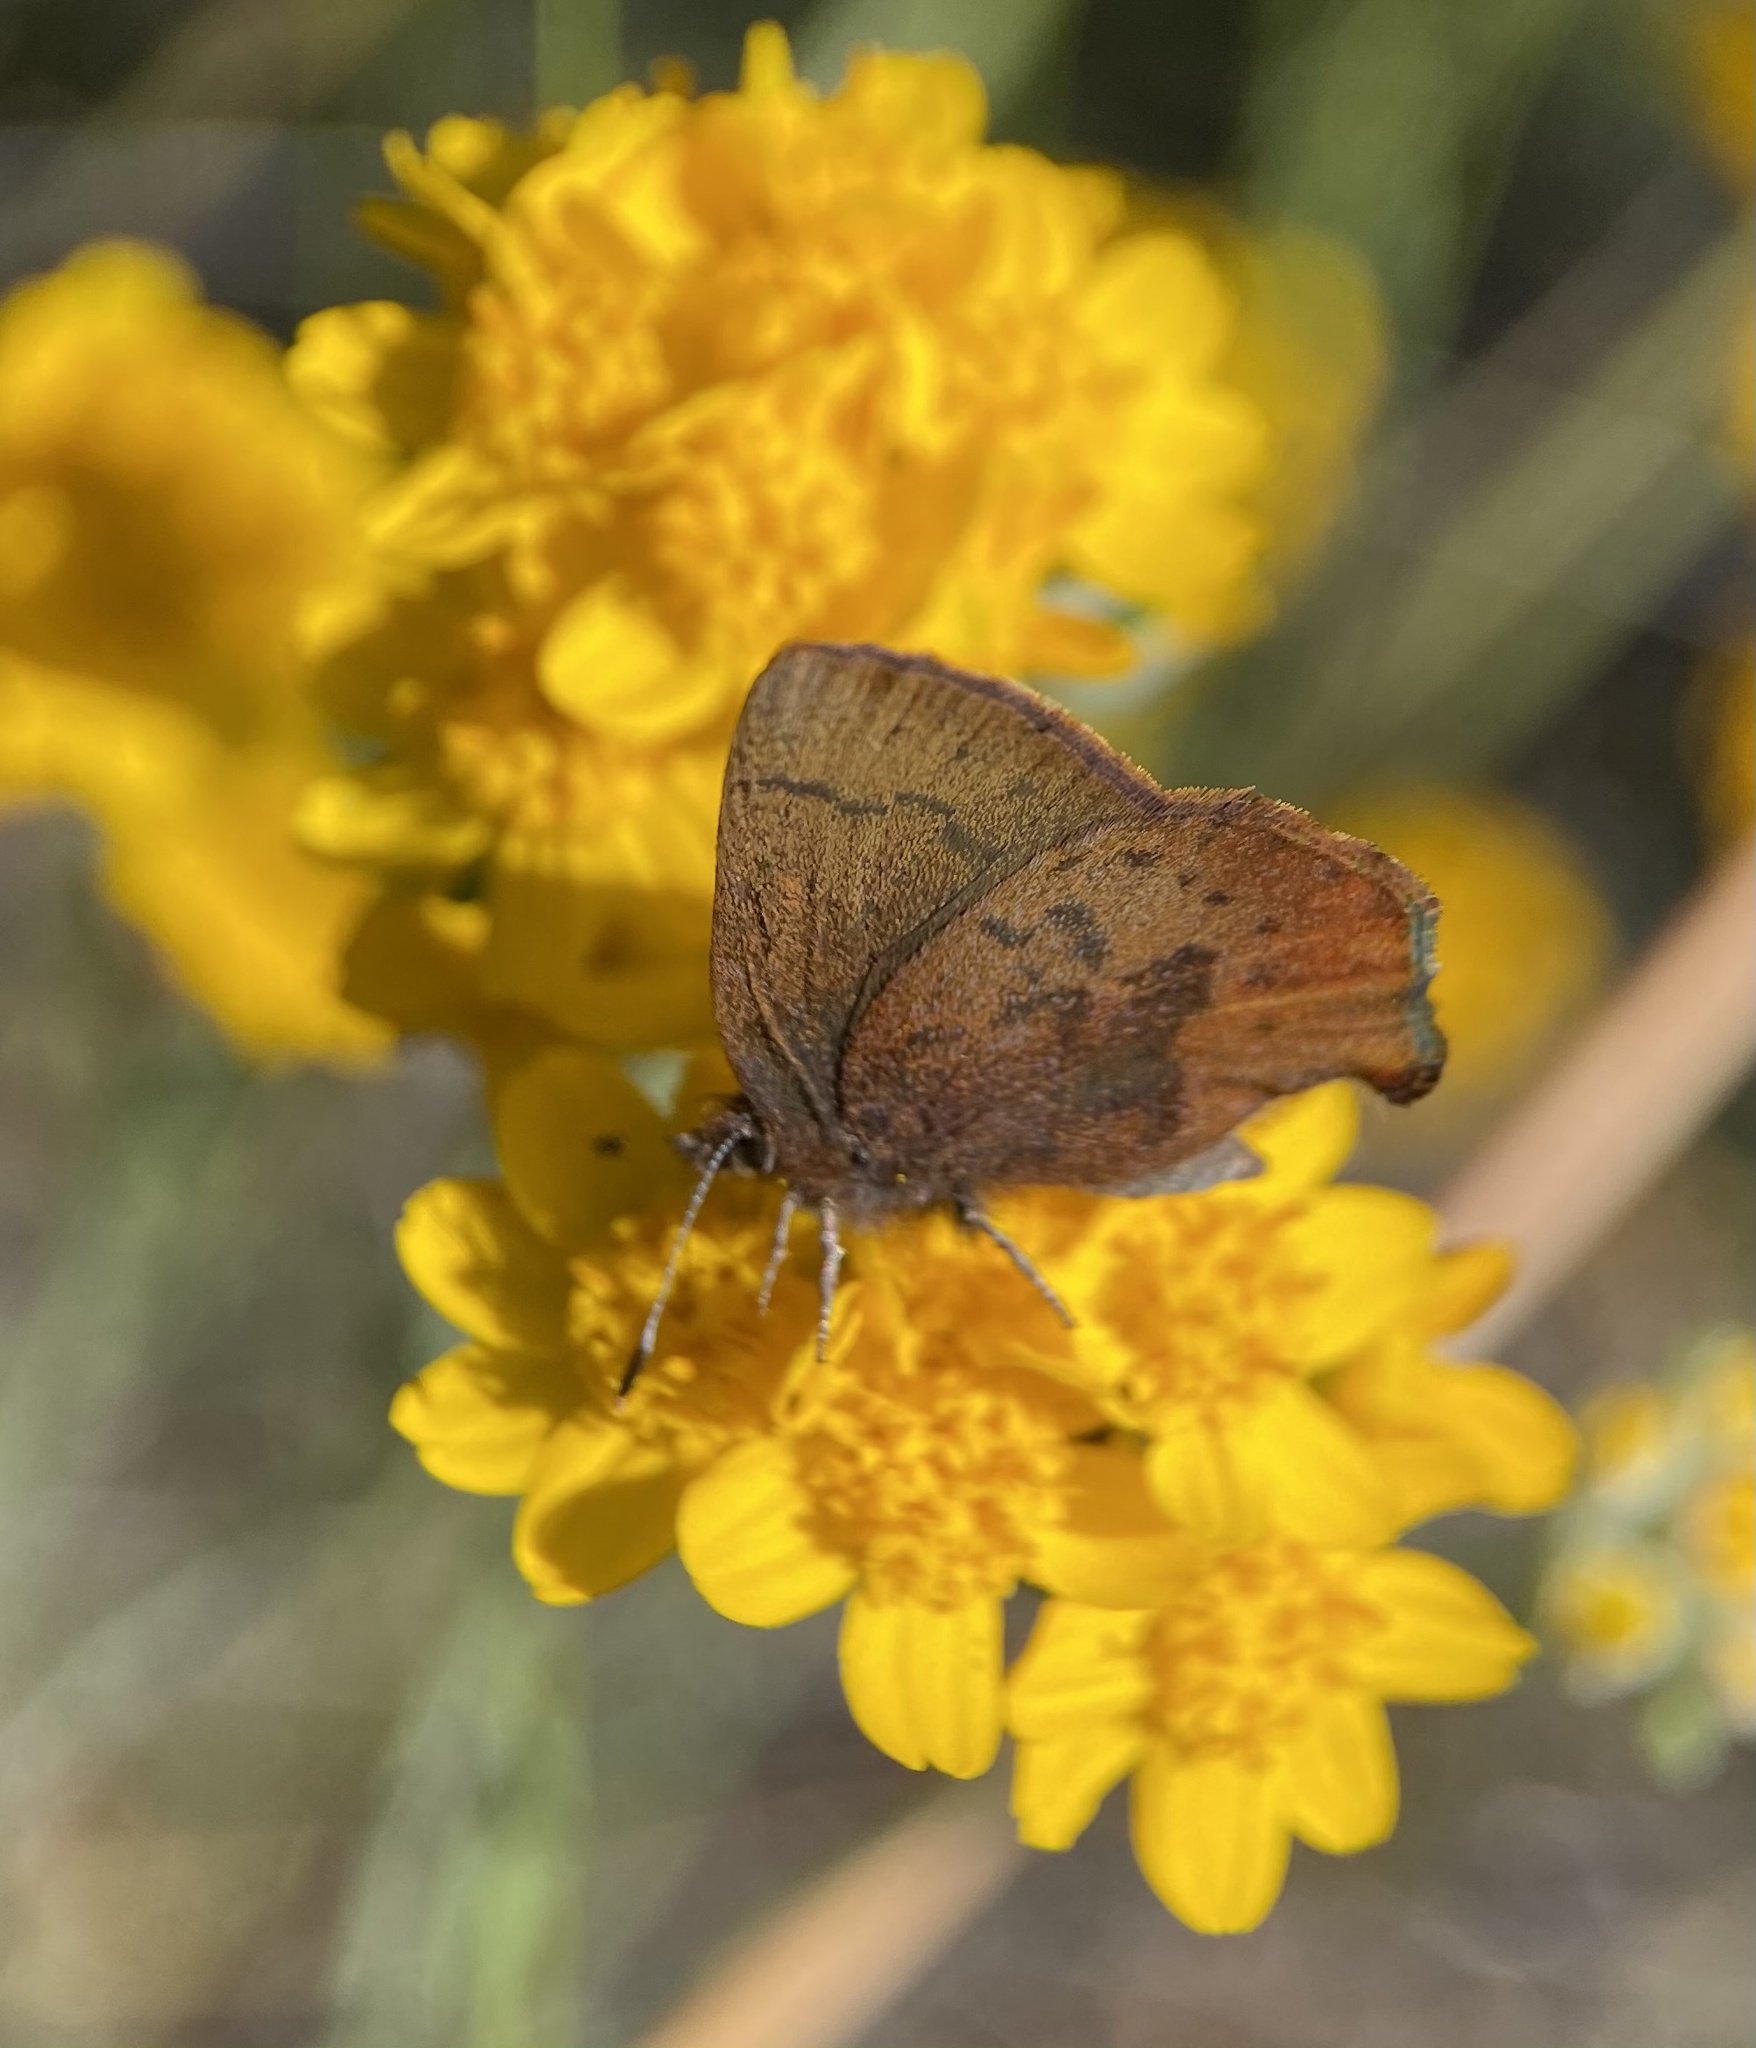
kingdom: Animalia
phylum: Arthropoda
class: Insecta
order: Lepidoptera
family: Lycaenidae
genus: Incisalia
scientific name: Incisalia irioides
